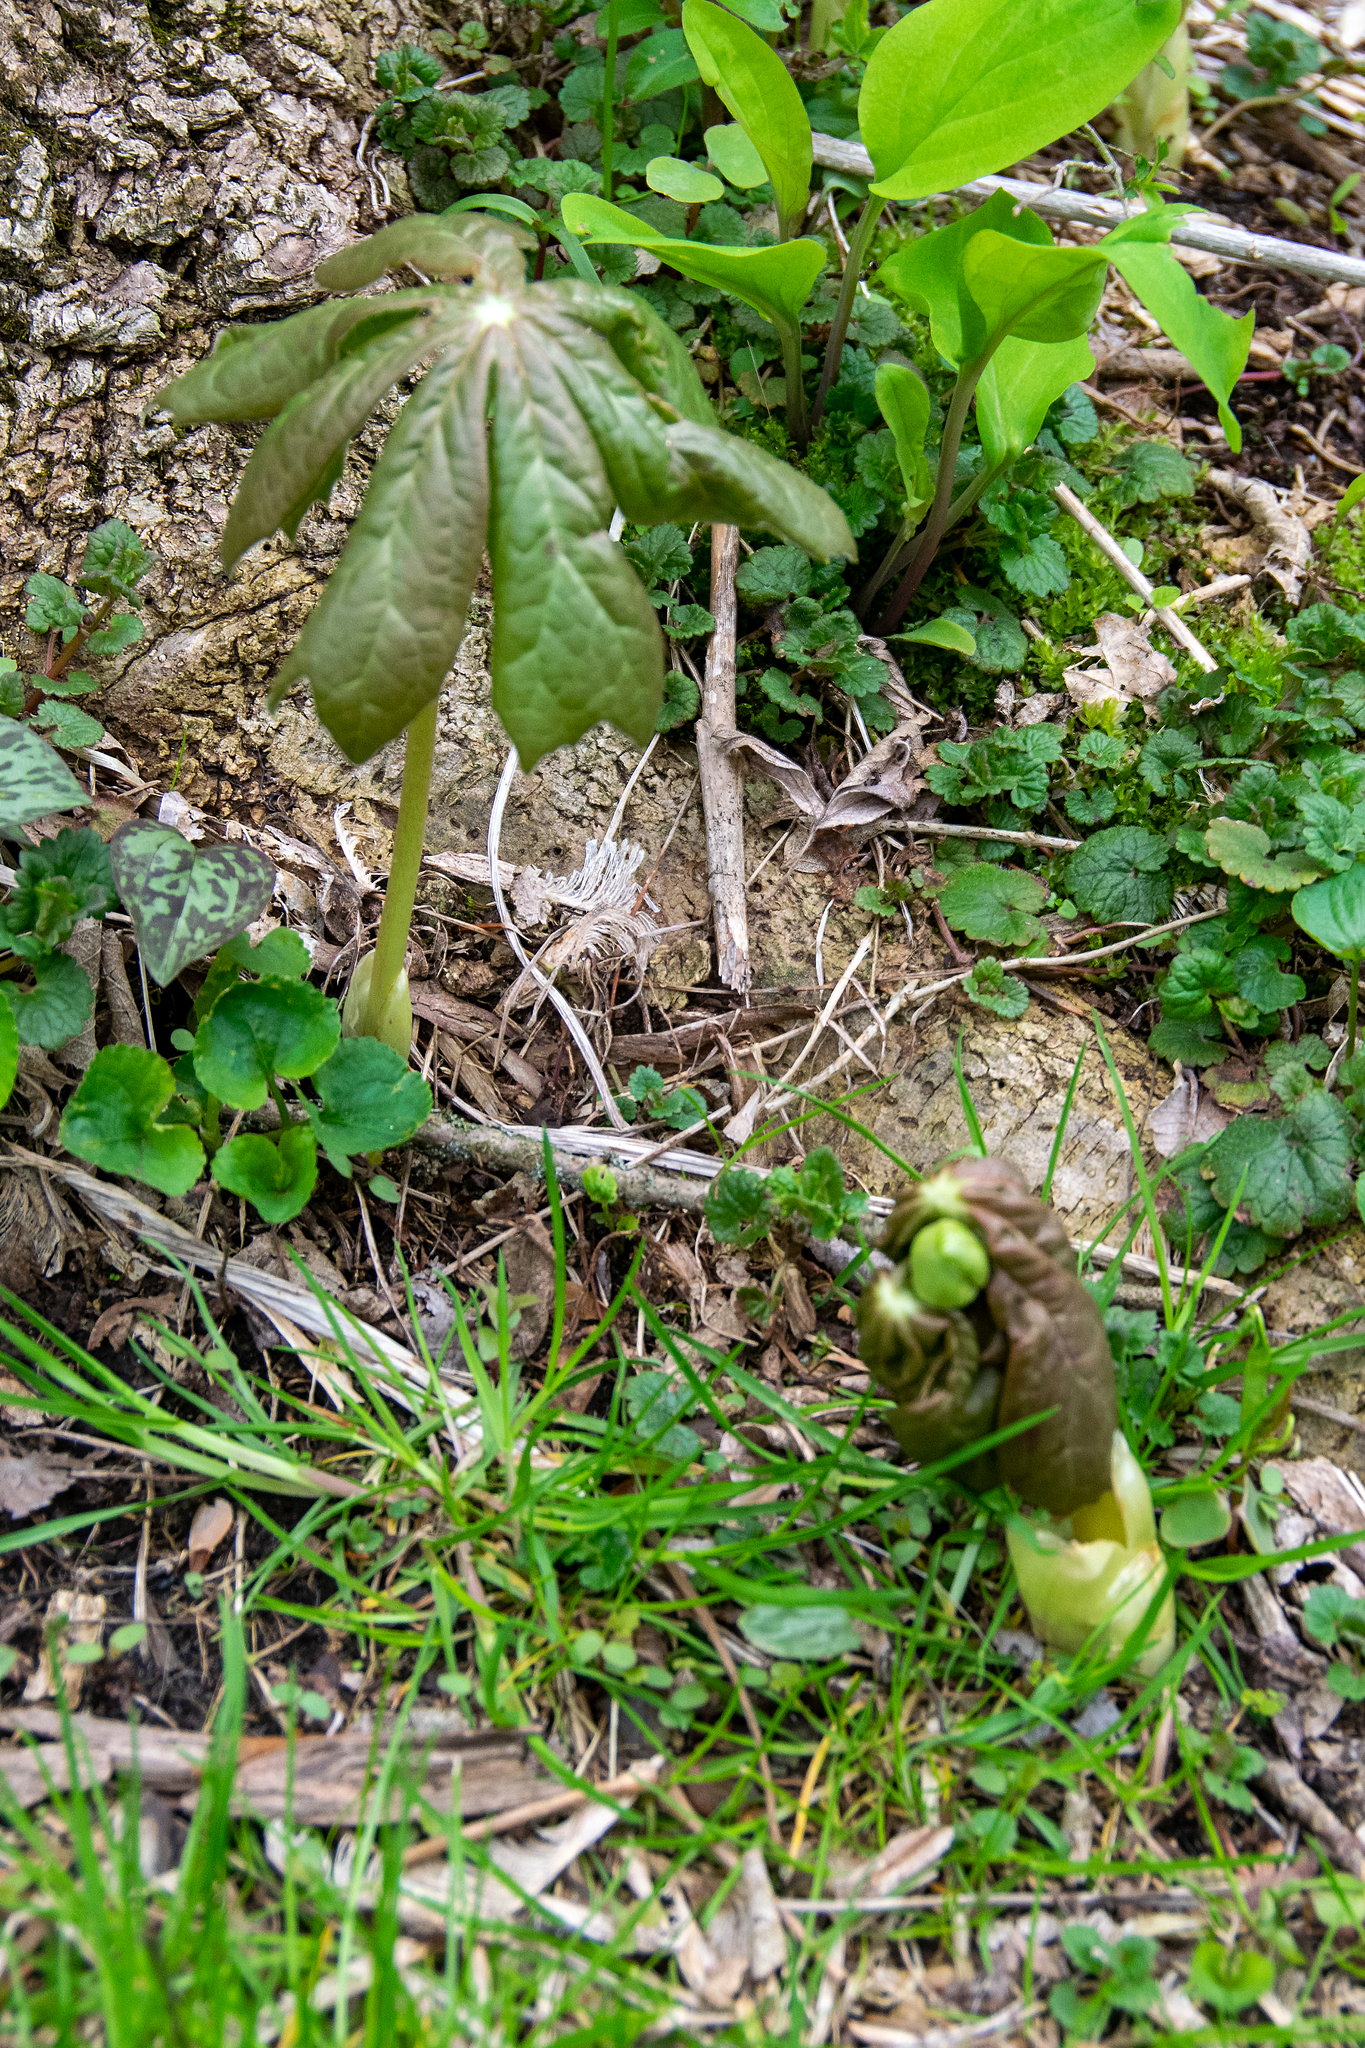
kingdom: Plantae
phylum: Tracheophyta
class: Magnoliopsida
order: Ranunculales
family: Berberidaceae
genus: Podophyllum
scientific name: Podophyllum peltatum
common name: Wild mandrake
